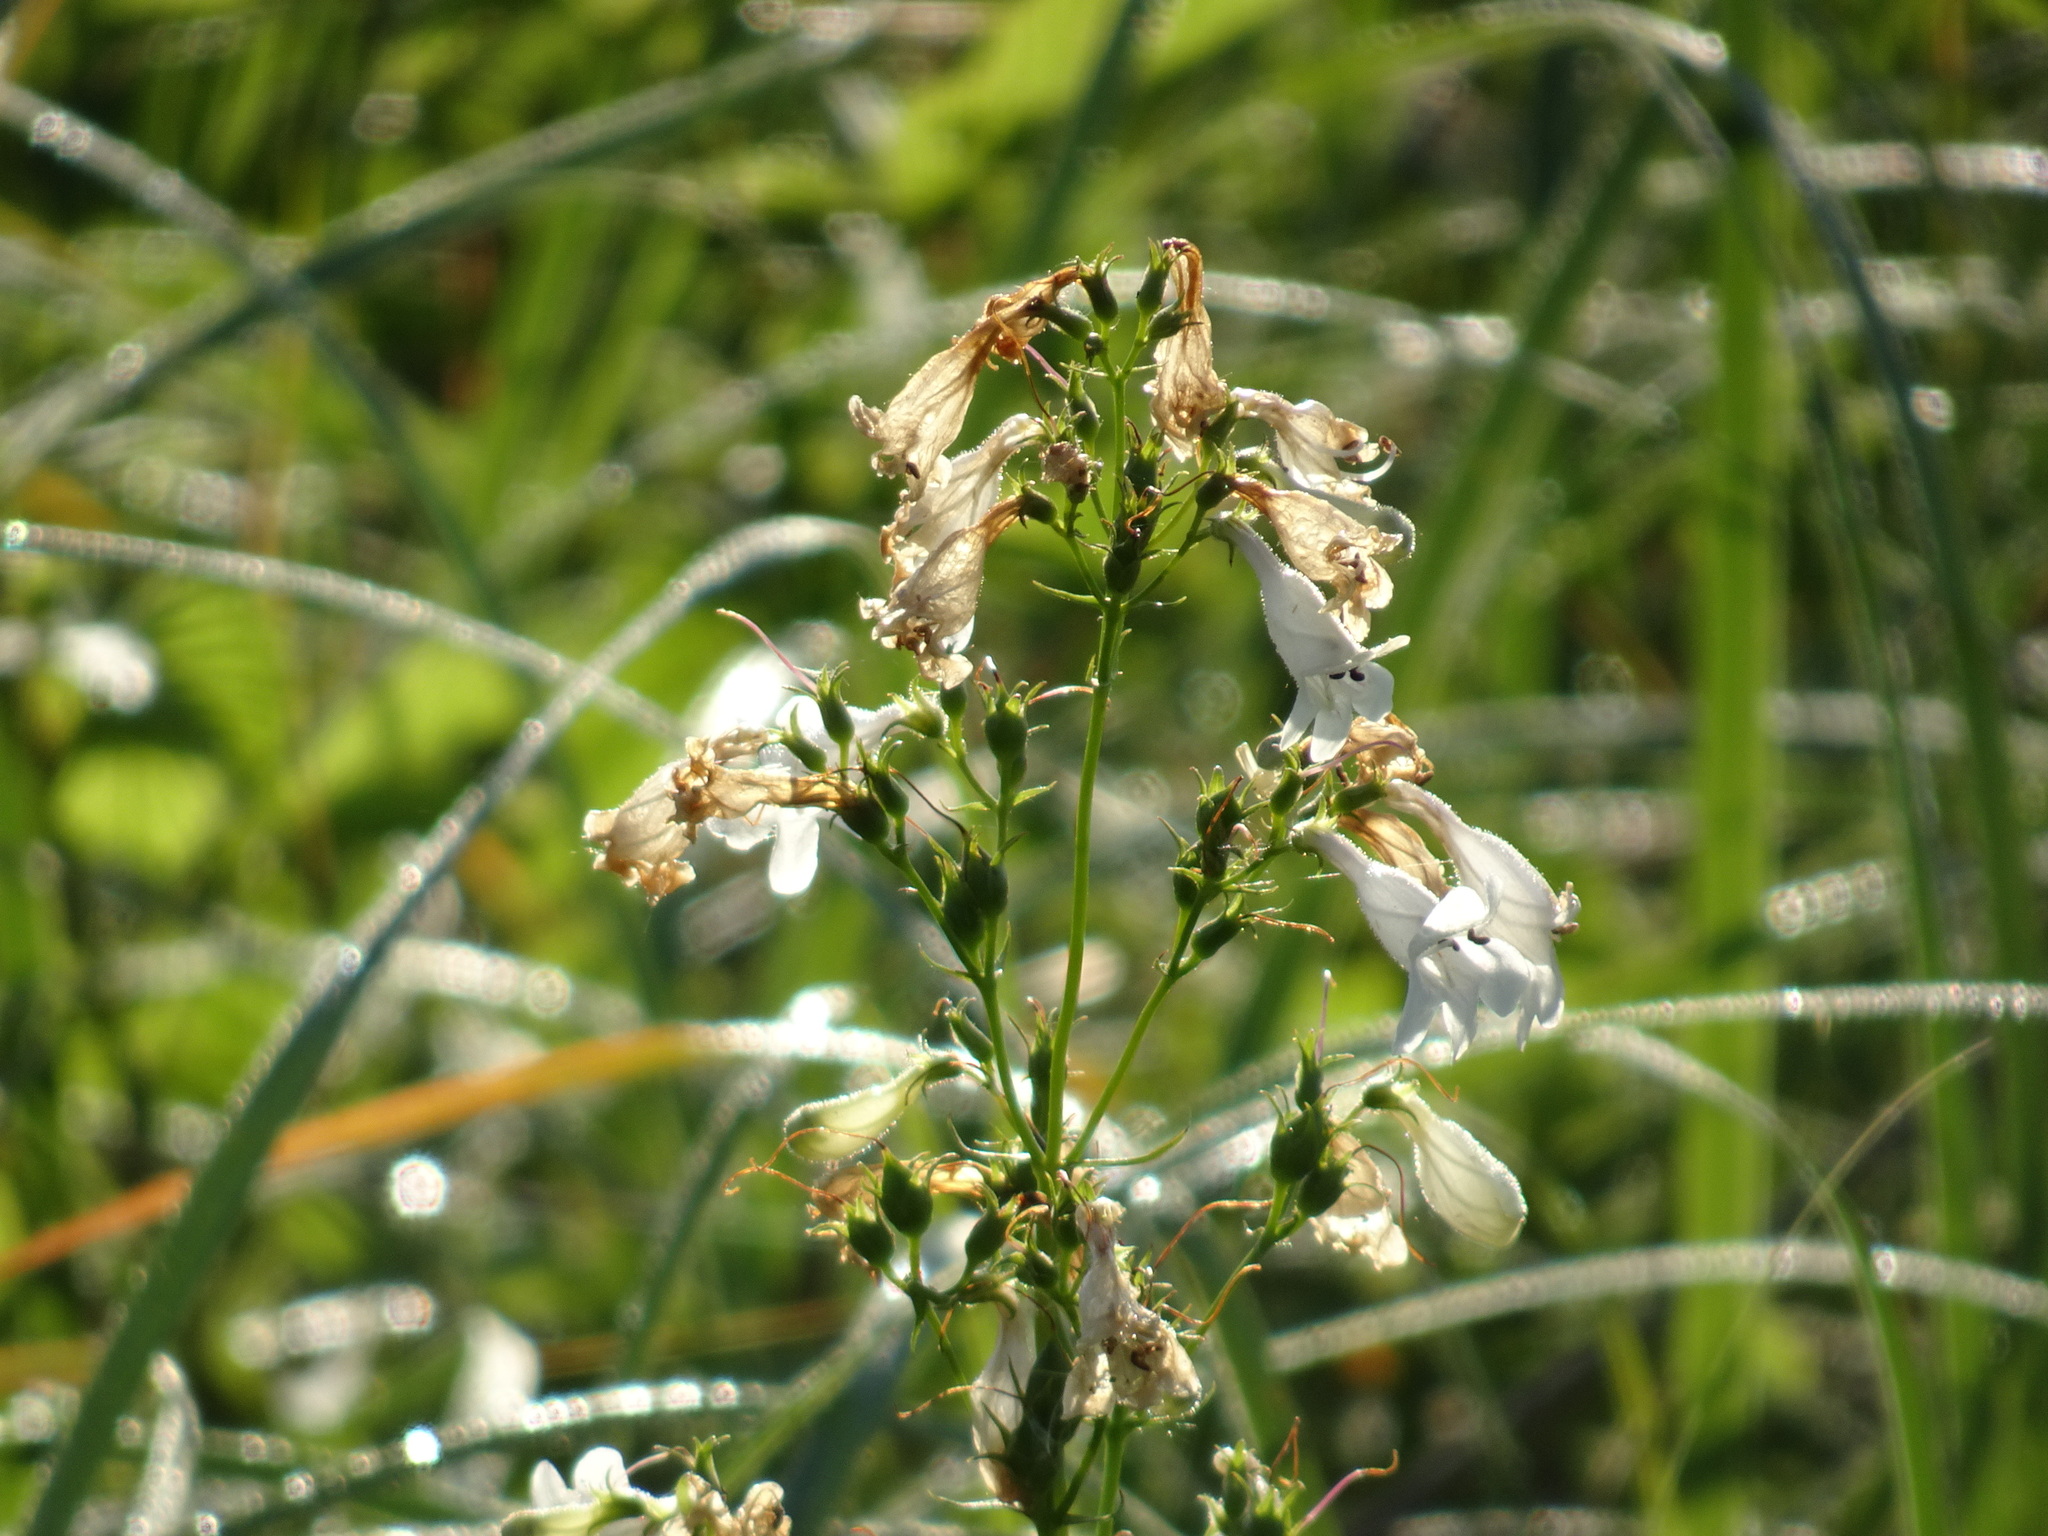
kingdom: Plantae
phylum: Tracheophyta
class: Magnoliopsida
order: Lamiales
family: Plantaginaceae
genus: Penstemon
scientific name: Penstemon digitalis
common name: Foxglove beardtongue
